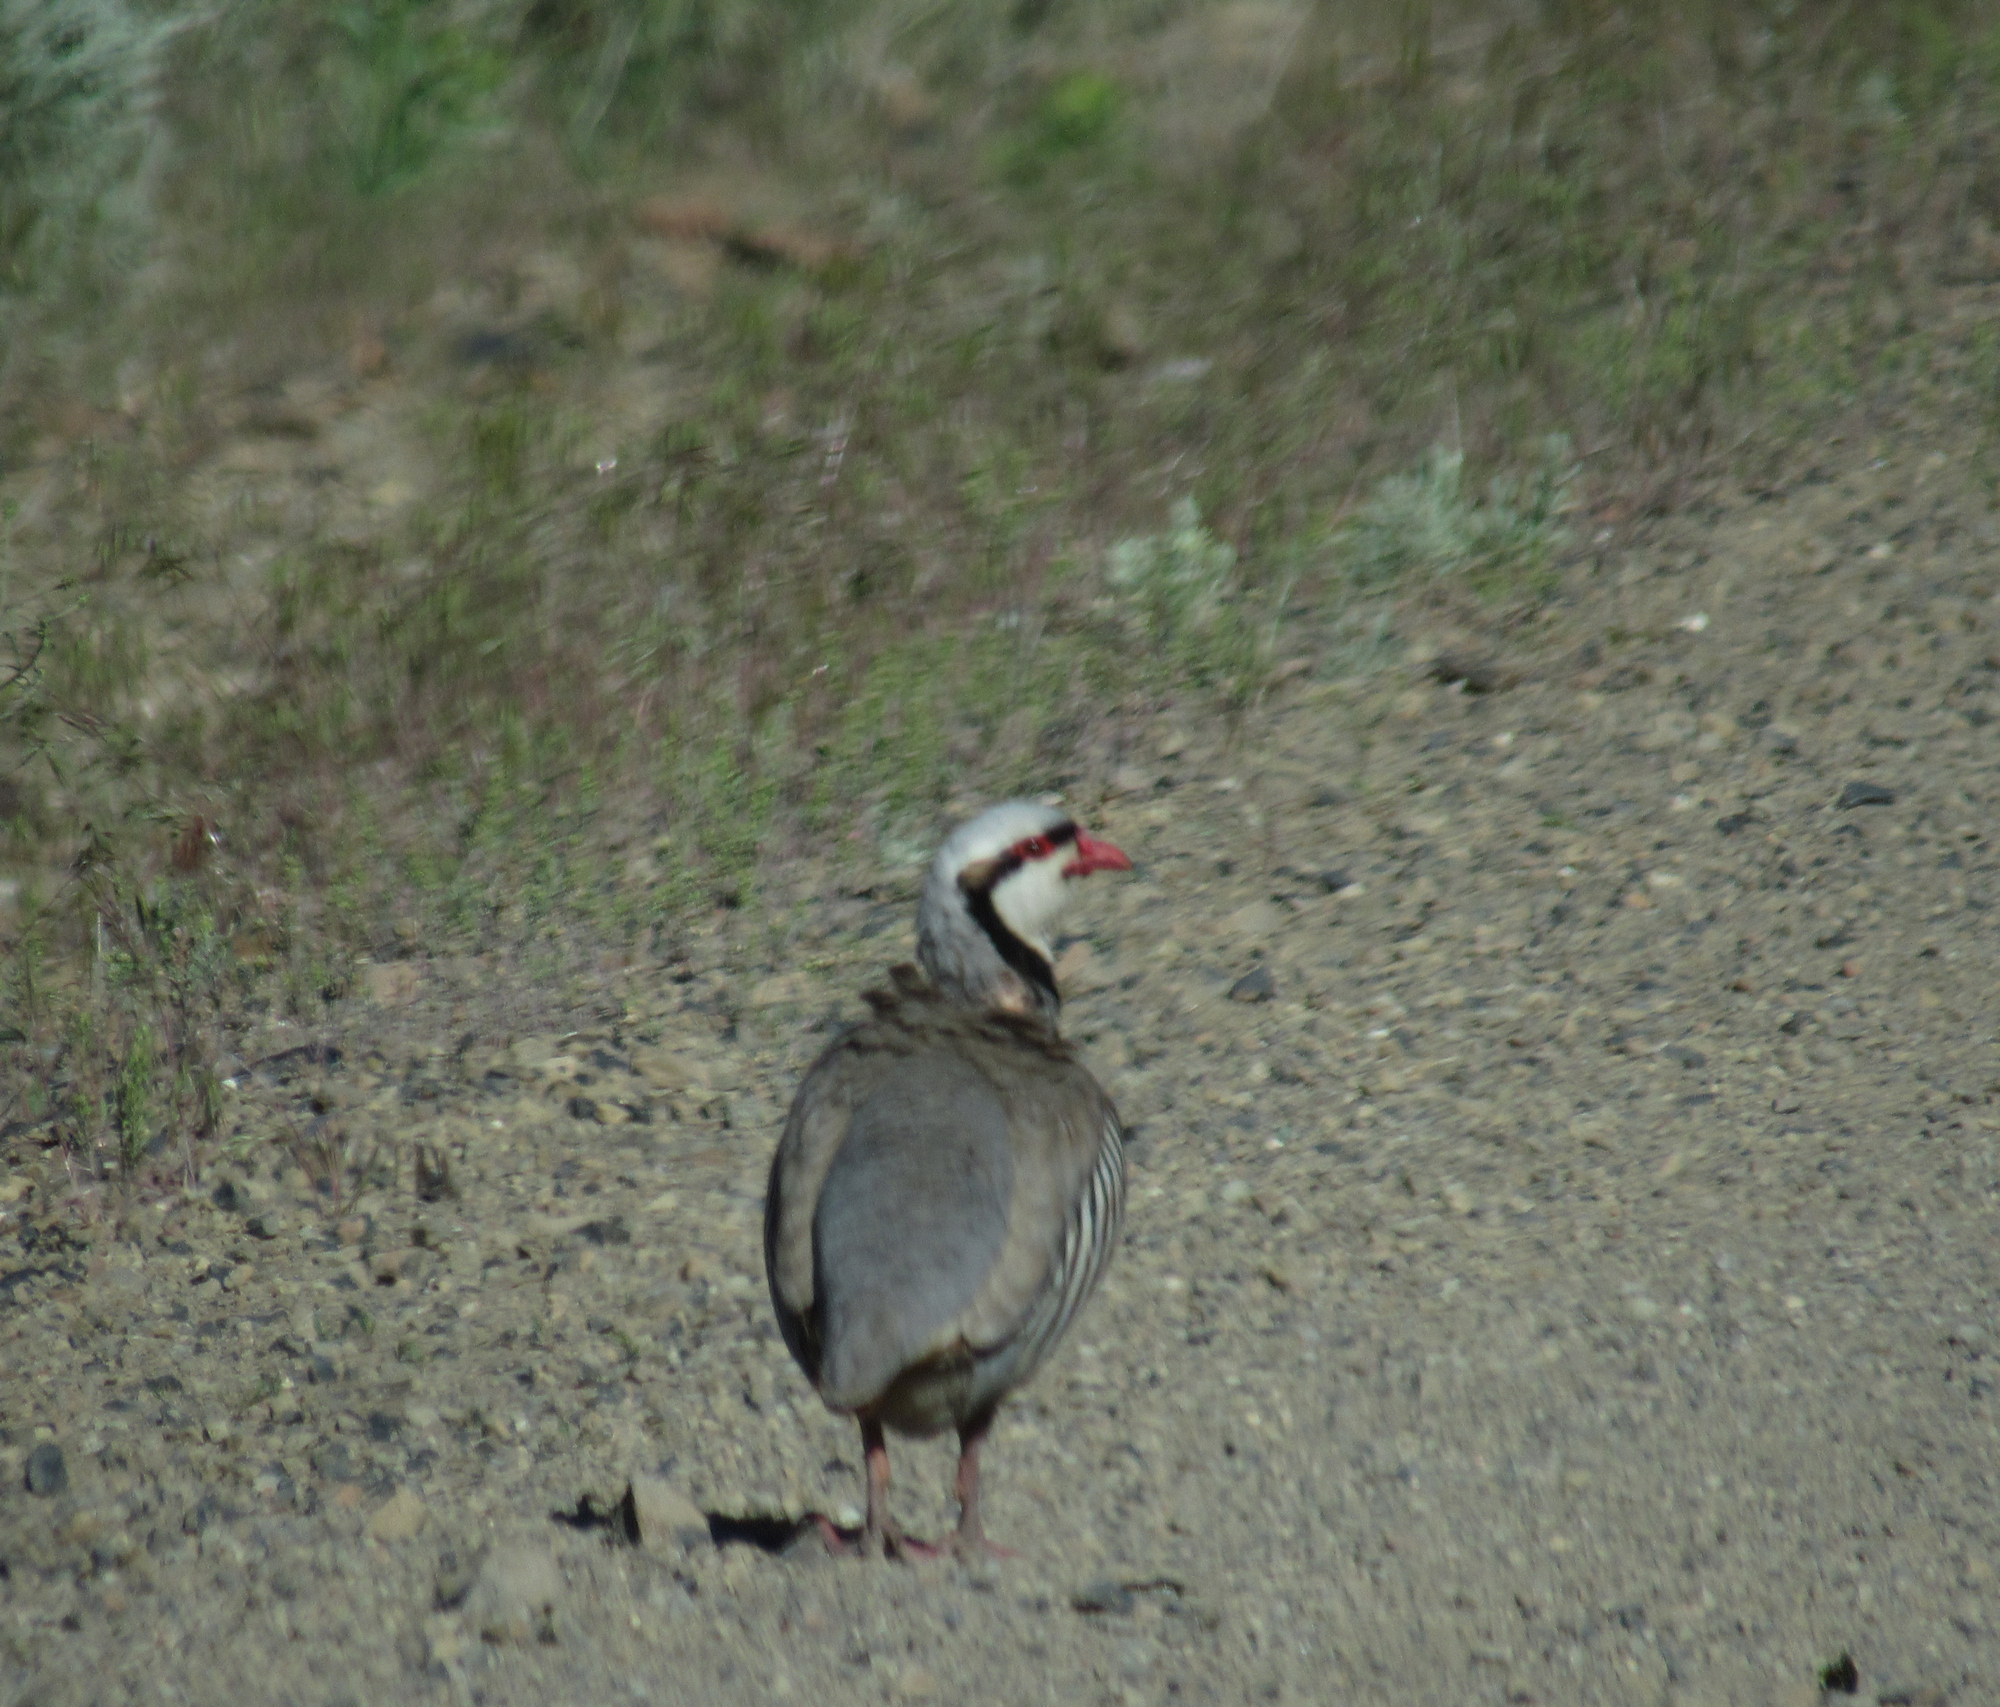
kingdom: Animalia
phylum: Chordata
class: Aves
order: Galliformes
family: Phasianidae
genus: Alectoris
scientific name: Alectoris chukar
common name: Chukar
